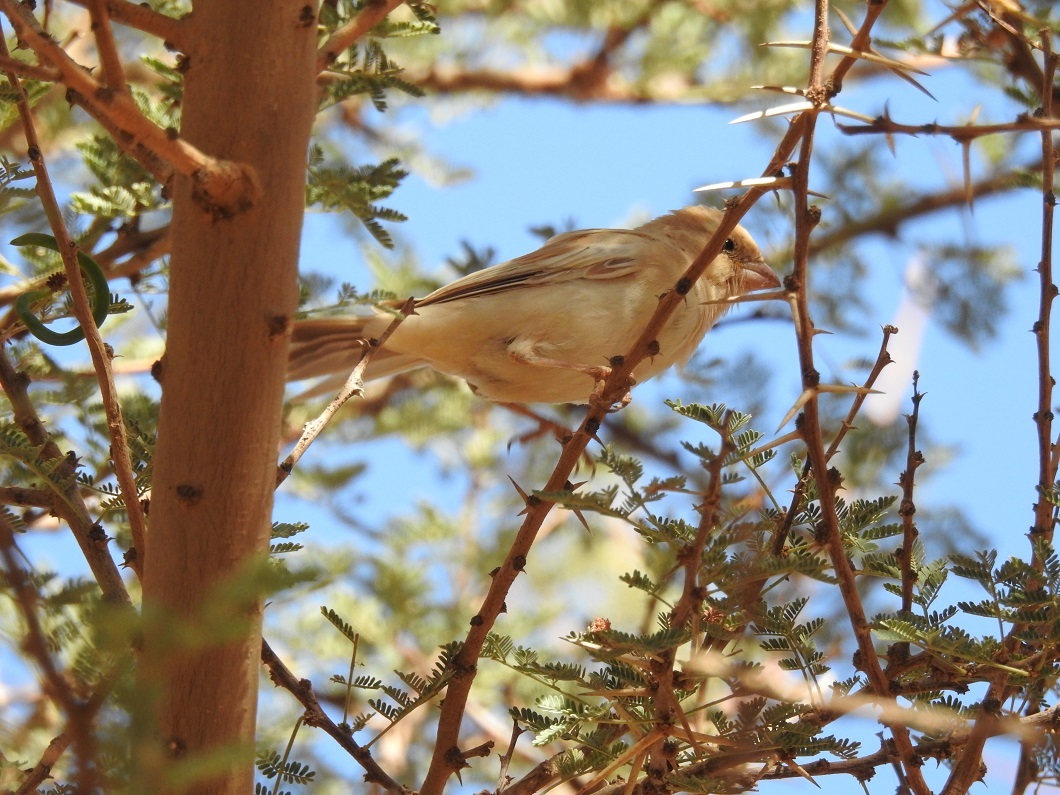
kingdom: Animalia
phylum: Chordata
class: Aves
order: Passeriformes
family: Passeridae
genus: Passer
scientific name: Passer simplex
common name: Desert sparrow
